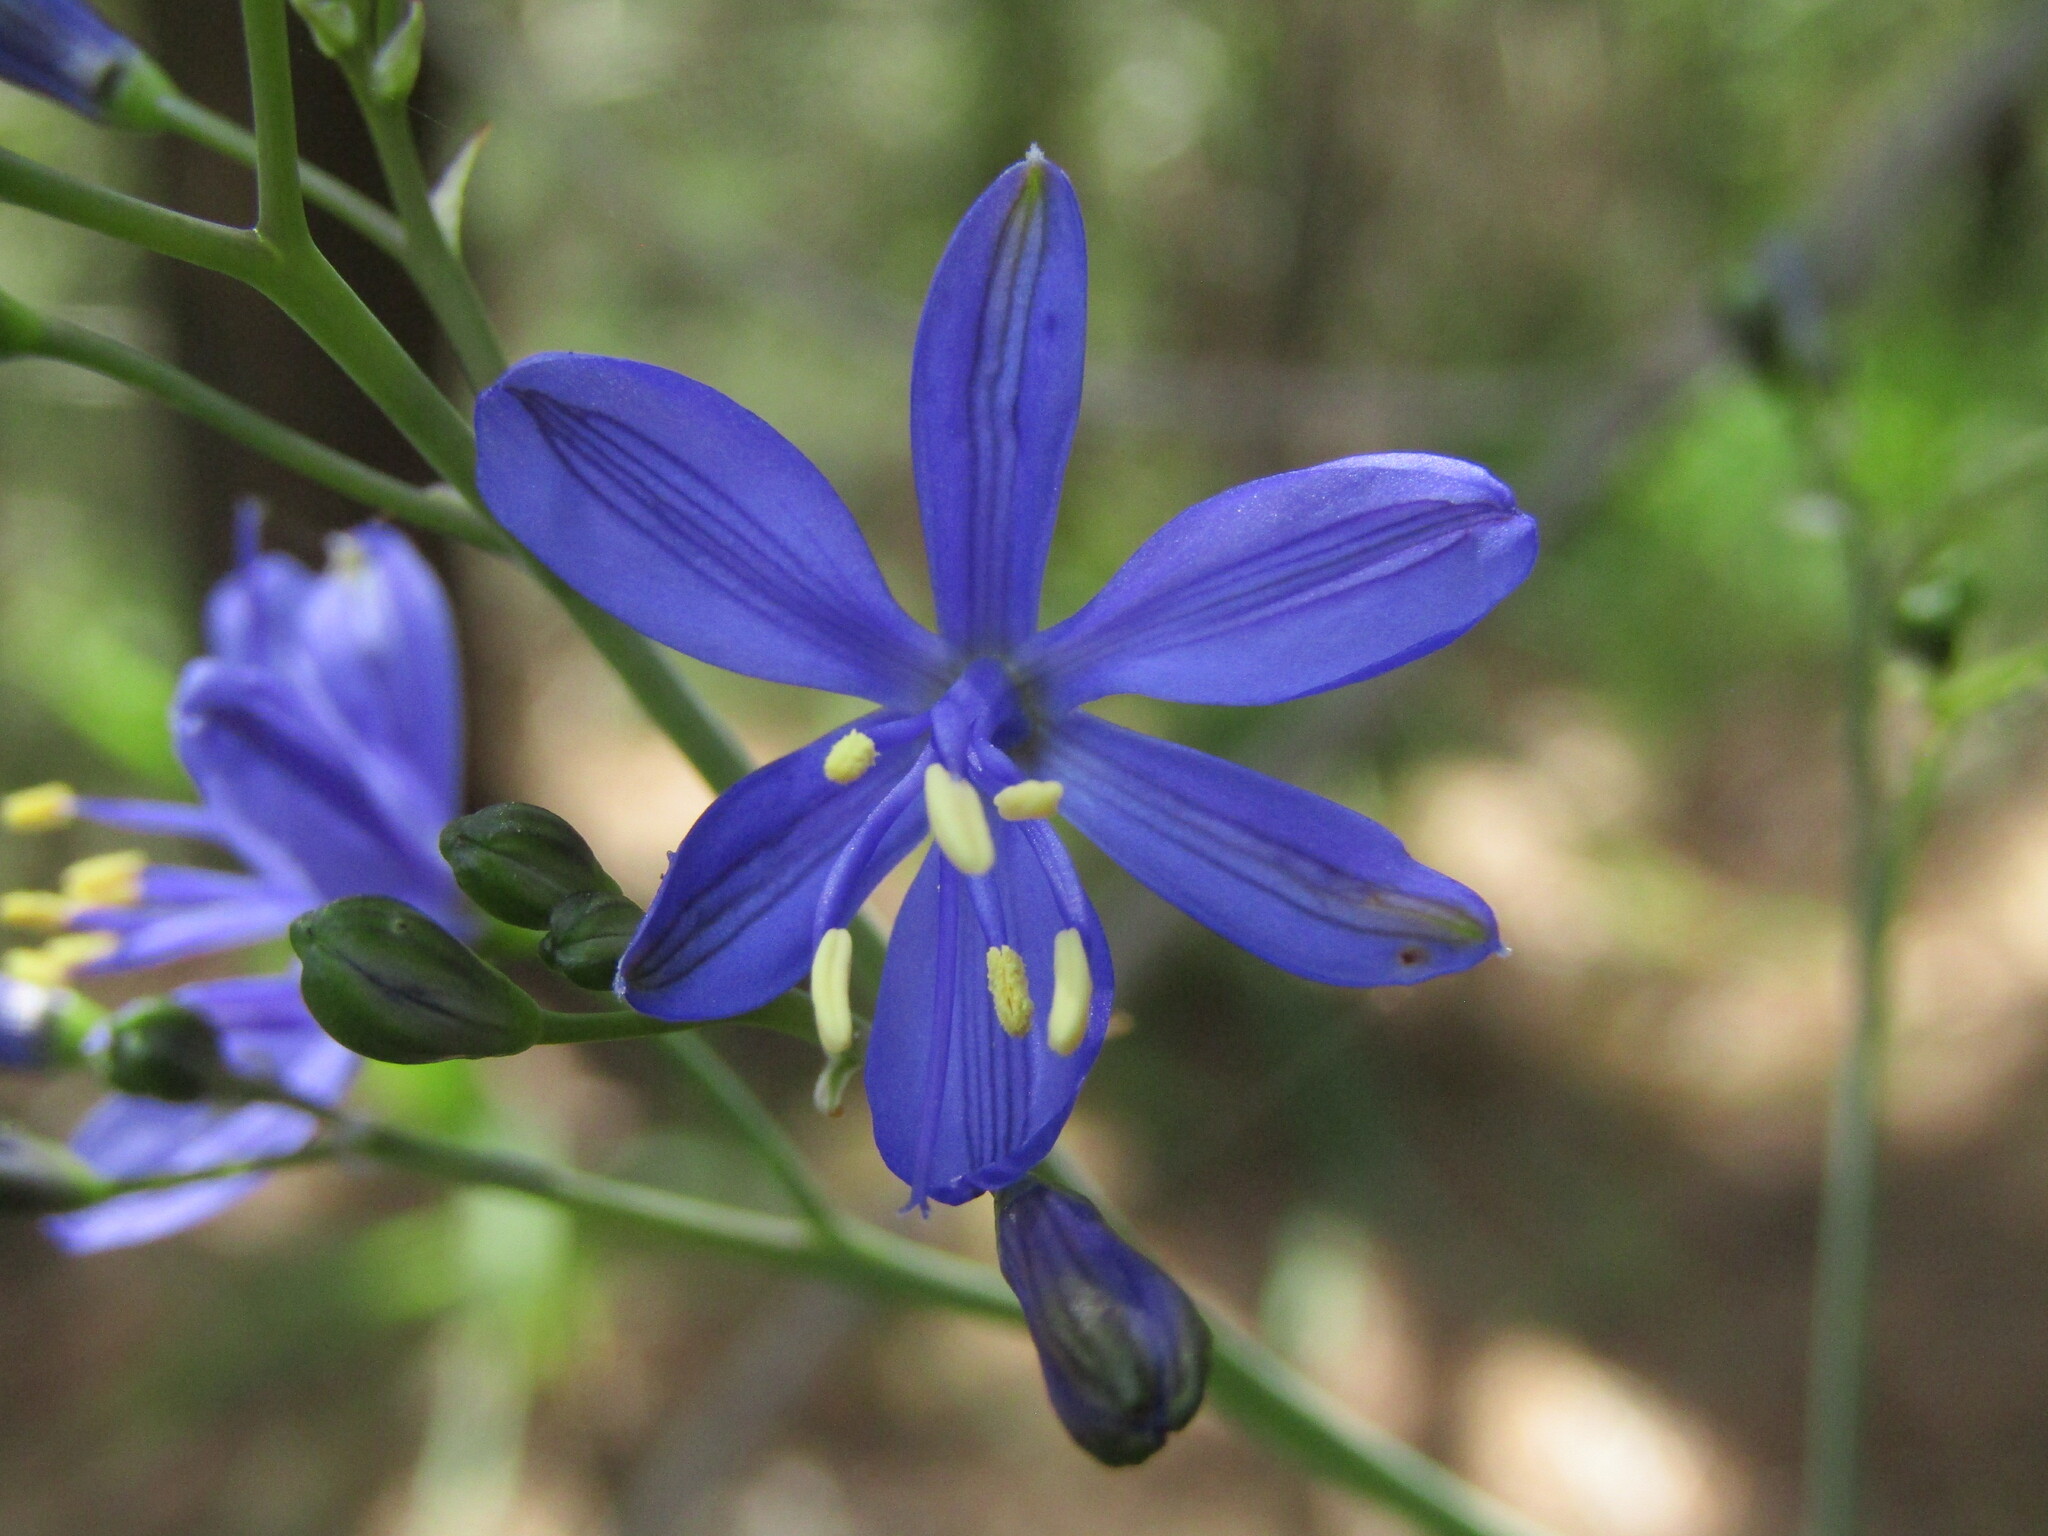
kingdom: Plantae
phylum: Tracheophyta
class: Liliopsida
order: Asparagales
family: Asphodelaceae
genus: Pasithea
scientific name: Pasithea caerulea
